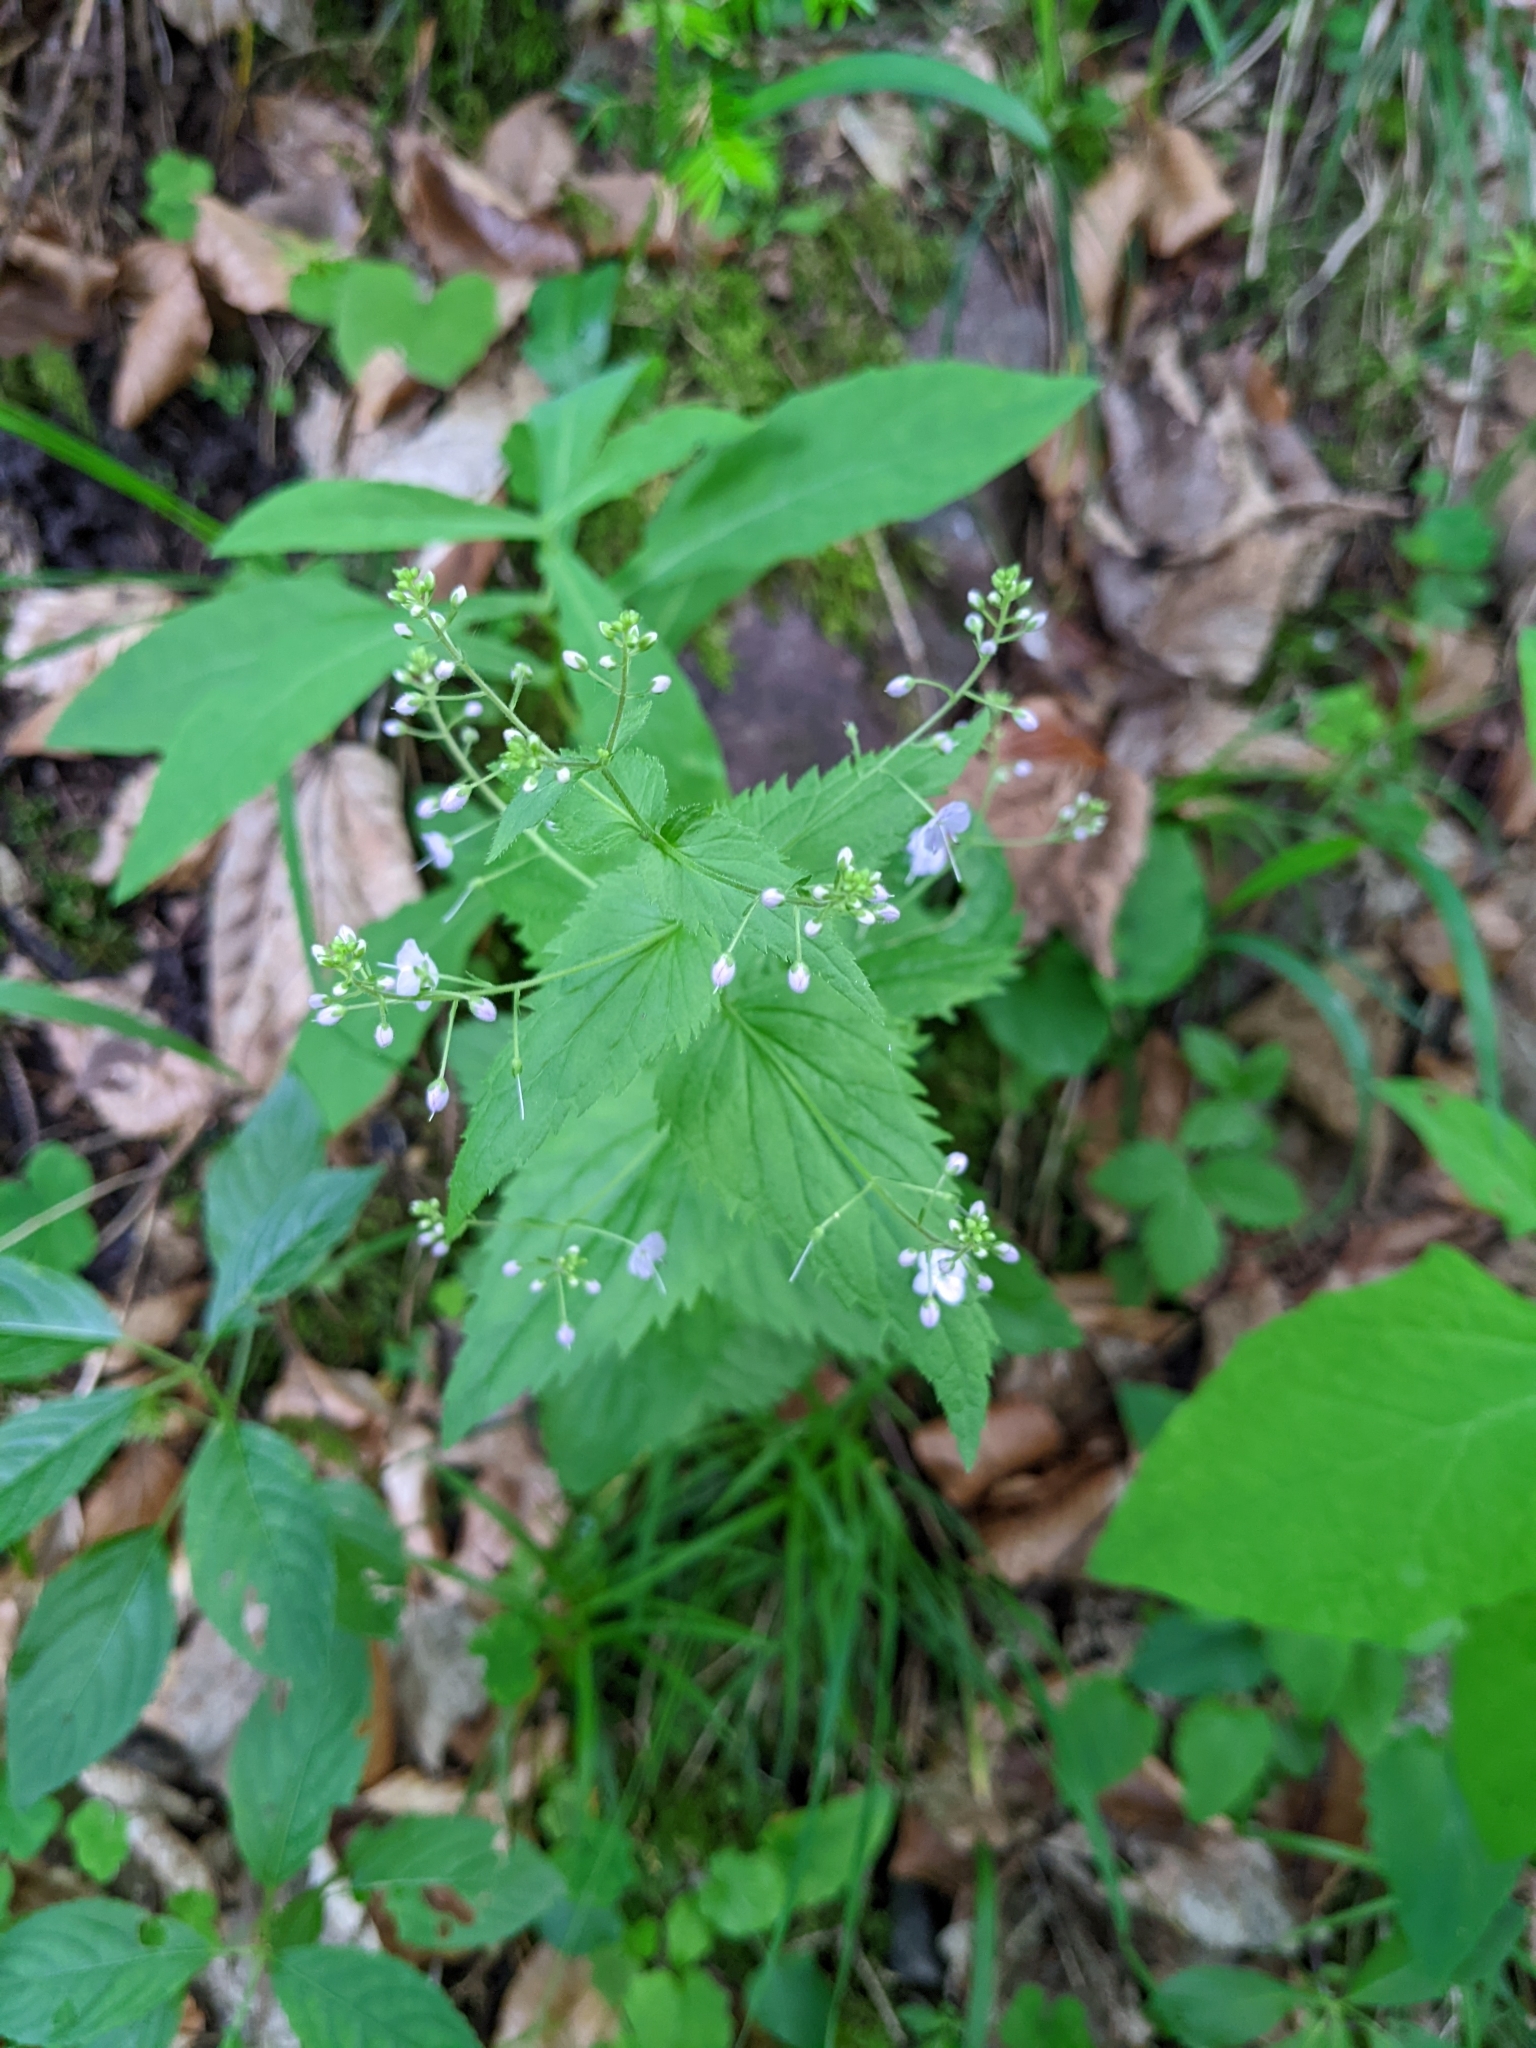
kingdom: Plantae
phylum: Tracheophyta
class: Magnoliopsida
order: Lamiales
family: Plantaginaceae
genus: Veronica
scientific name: Veronica urticifolia
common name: Nettle-leaf speedwell
